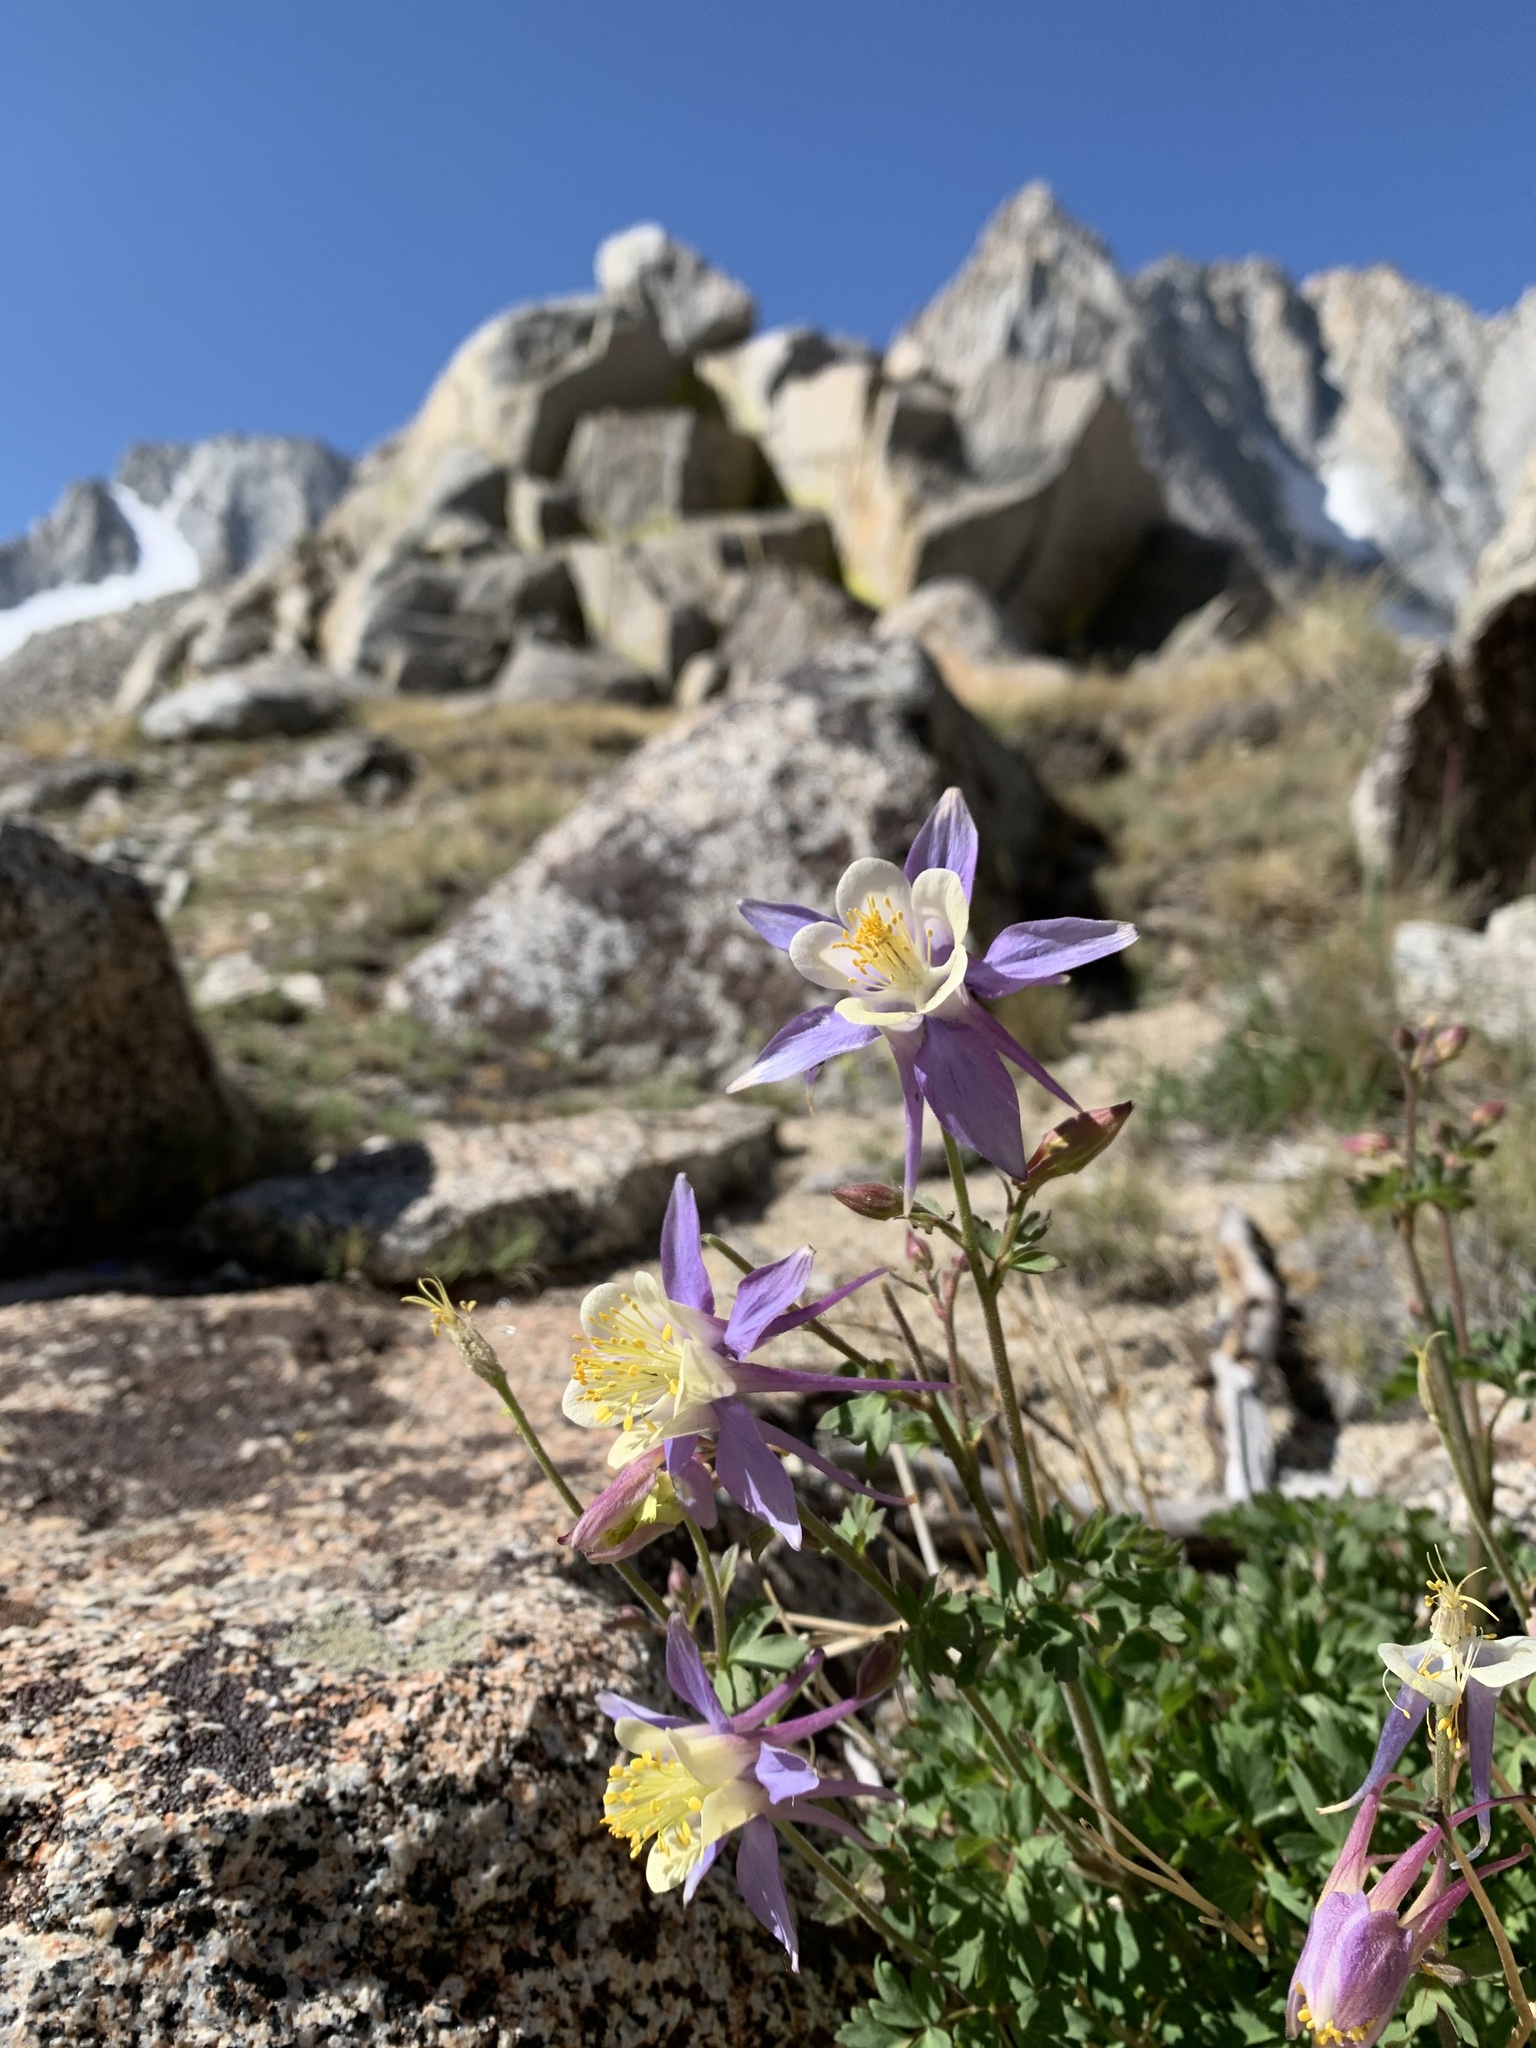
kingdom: Plantae
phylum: Tracheophyta
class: Magnoliopsida
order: Ranunculales
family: Ranunculaceae
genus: Aquilegia
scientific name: Aquilegia pubescens
